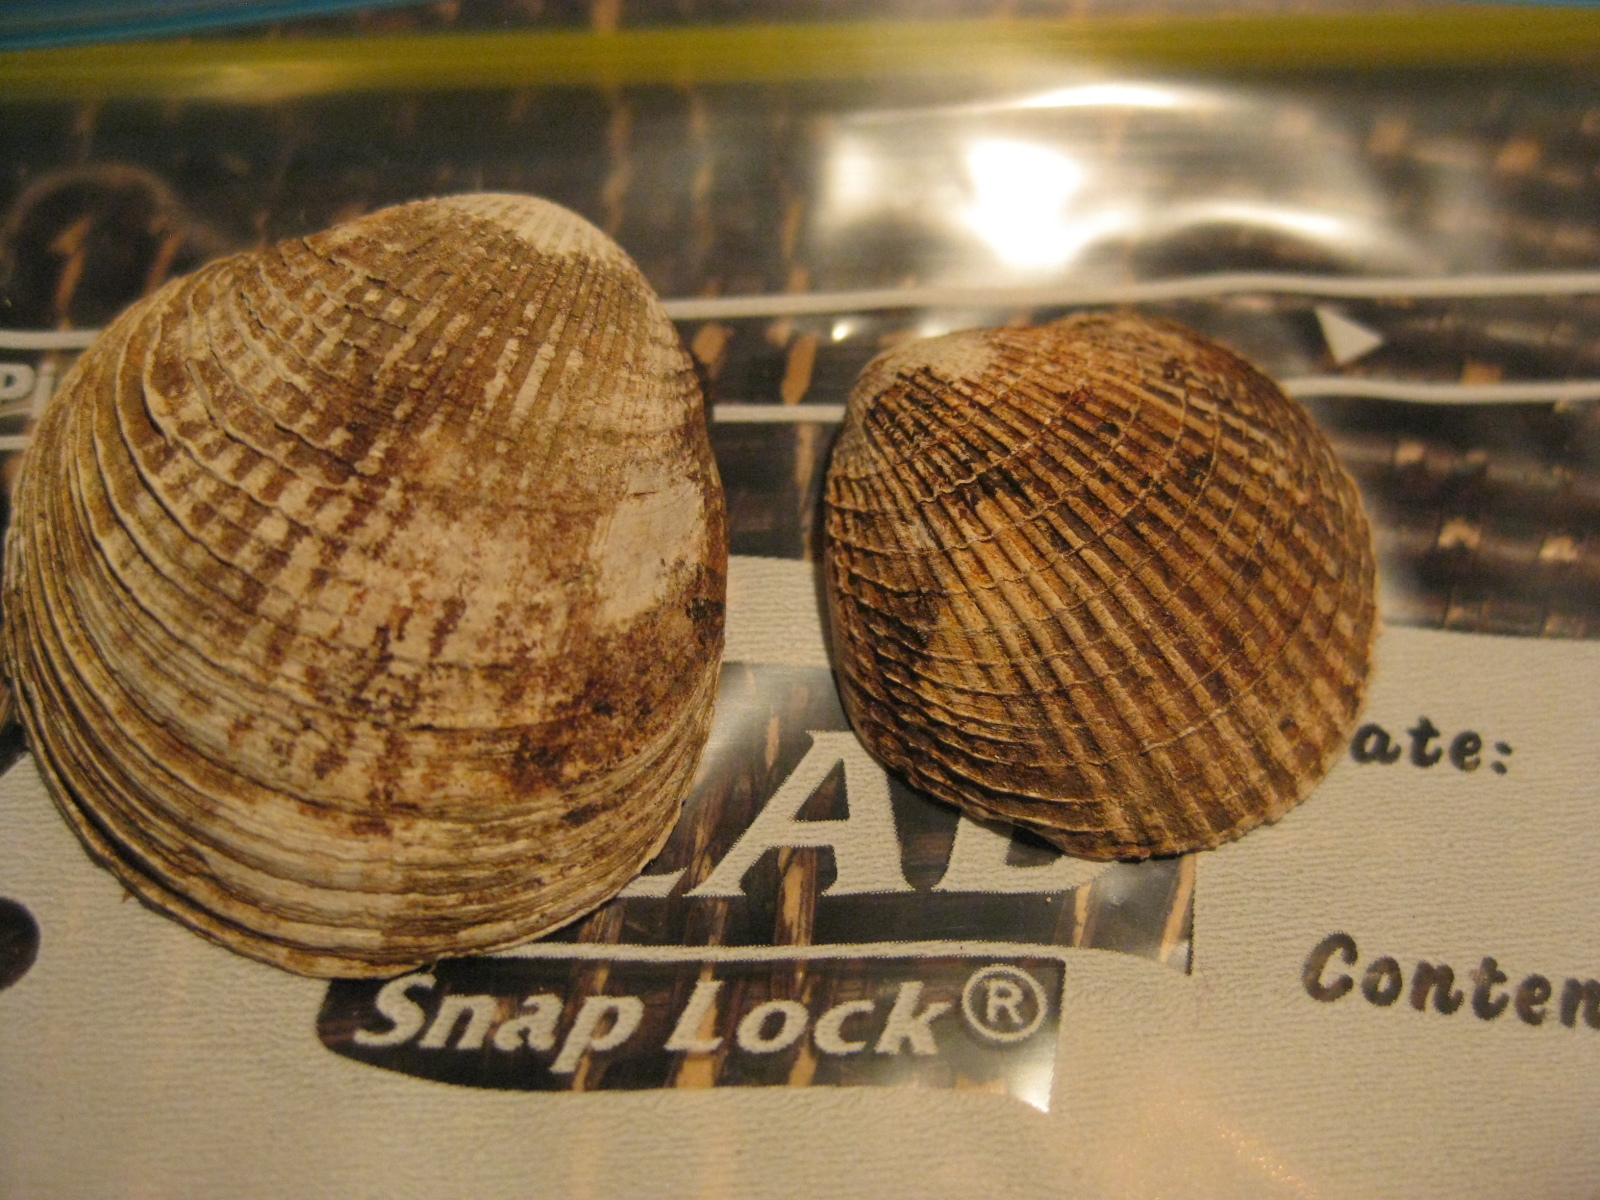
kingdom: Animalia
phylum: Mollusca
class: Bivalvia
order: Venerida
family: Veneridae
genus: Austrovenus
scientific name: Austrovenus stutchburyi
